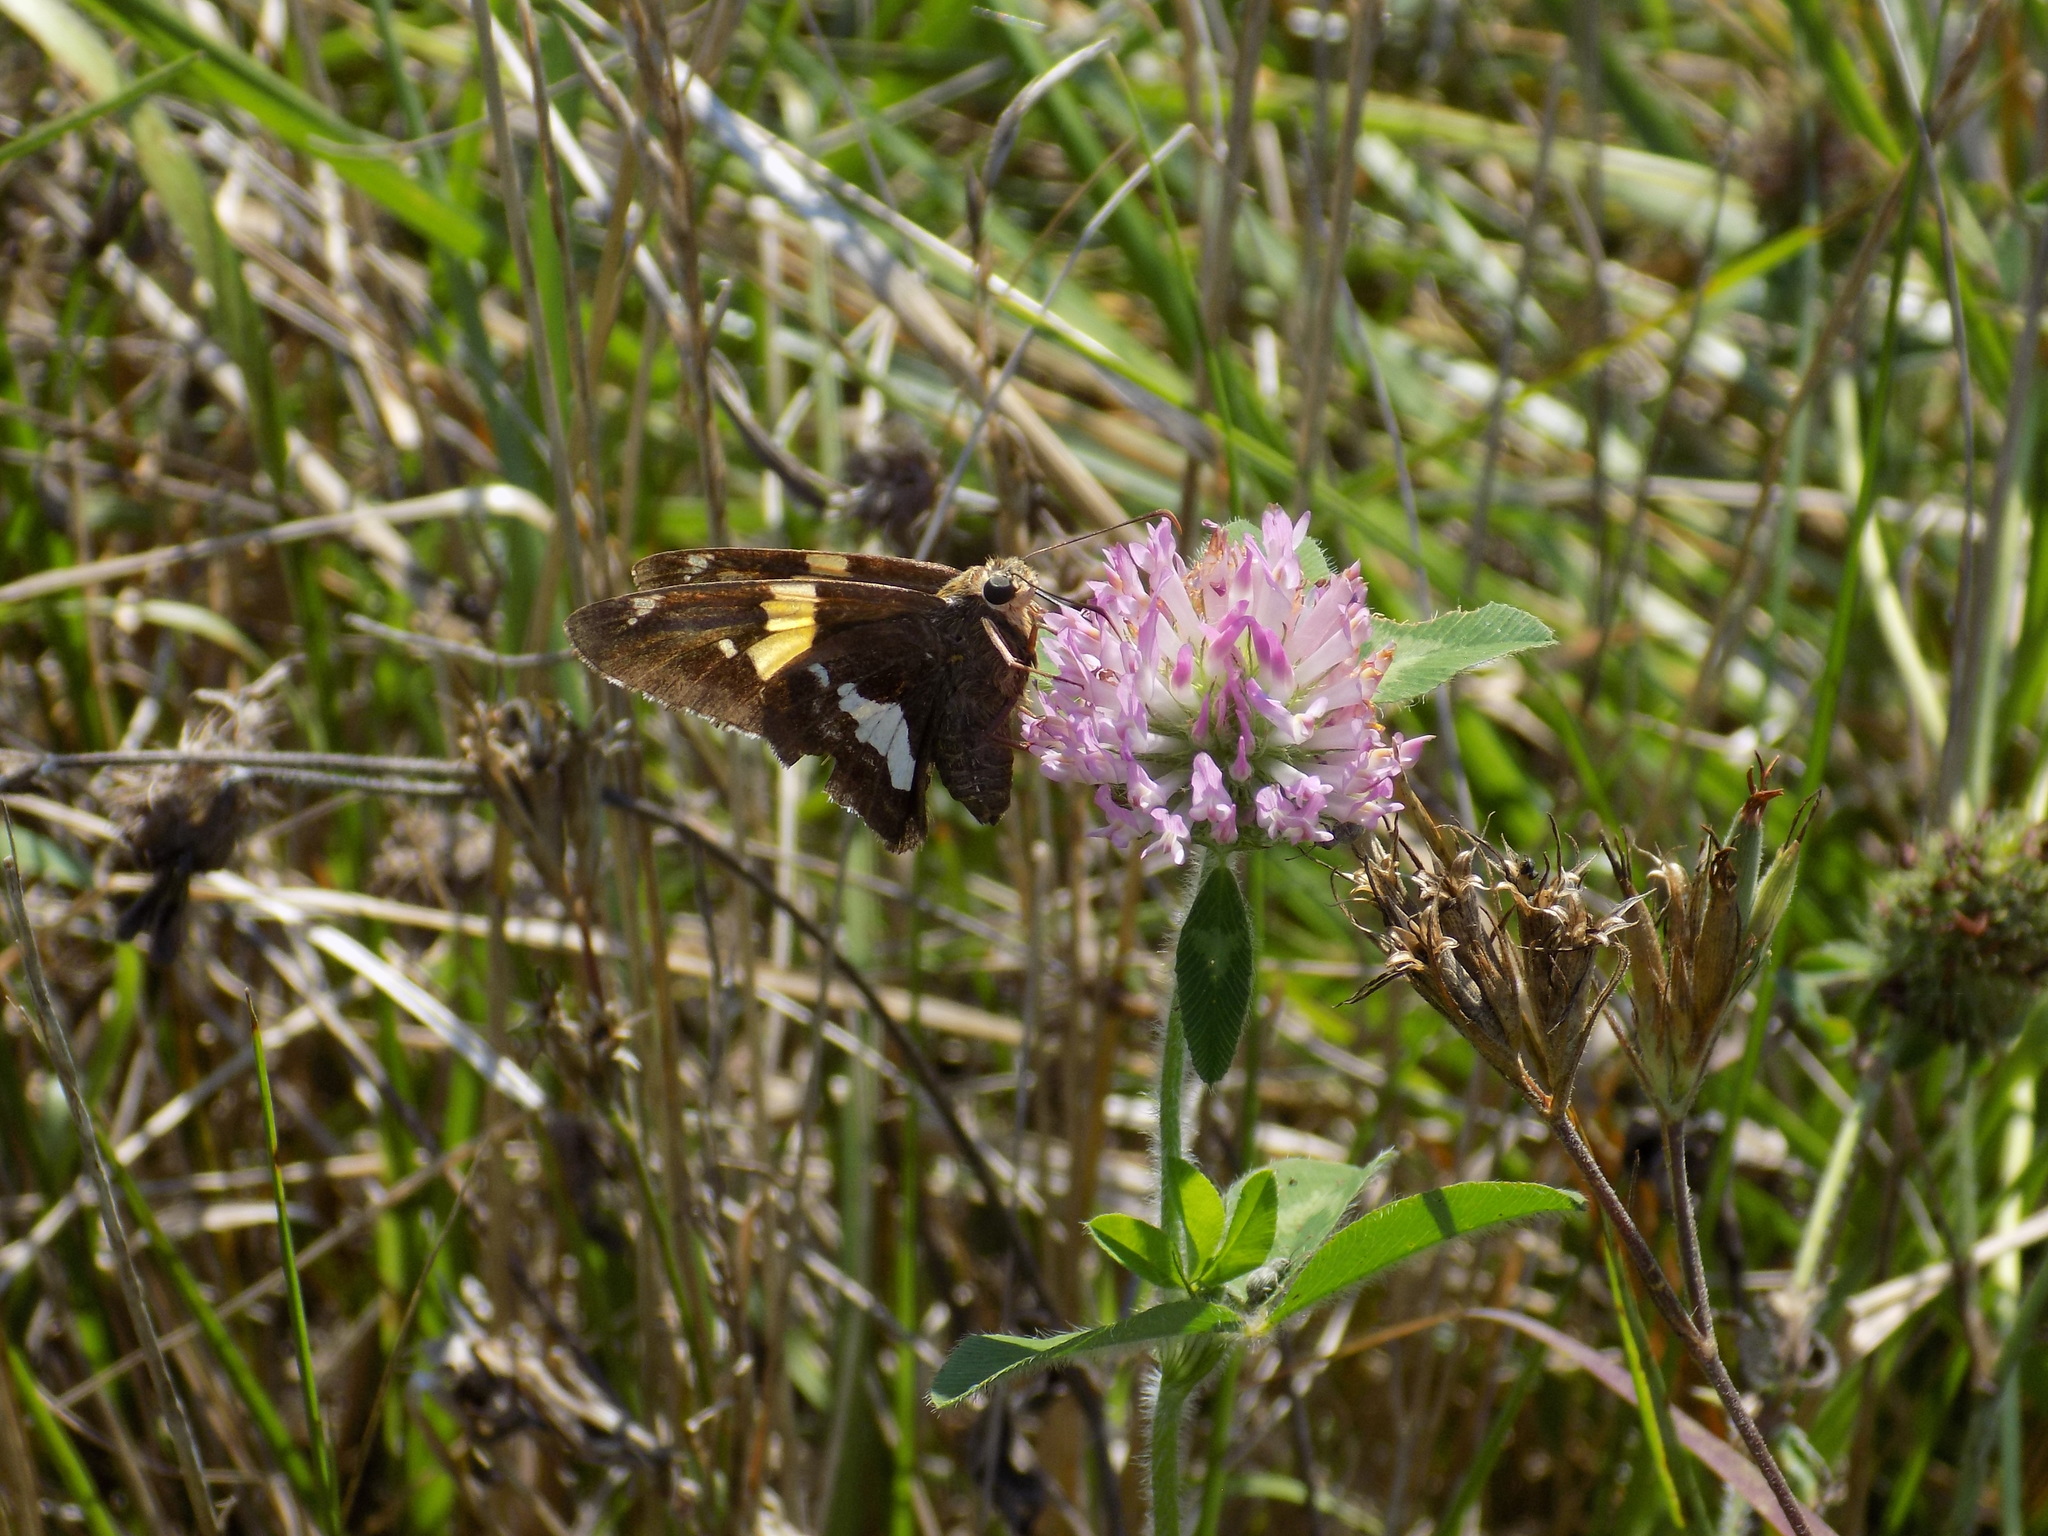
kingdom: Animalia
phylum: Arthropoda
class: Insecta
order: Lepidoptera
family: Hesperiidae
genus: Epargyreus
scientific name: Epargyreus clarus
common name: Silver-spotted skipper
